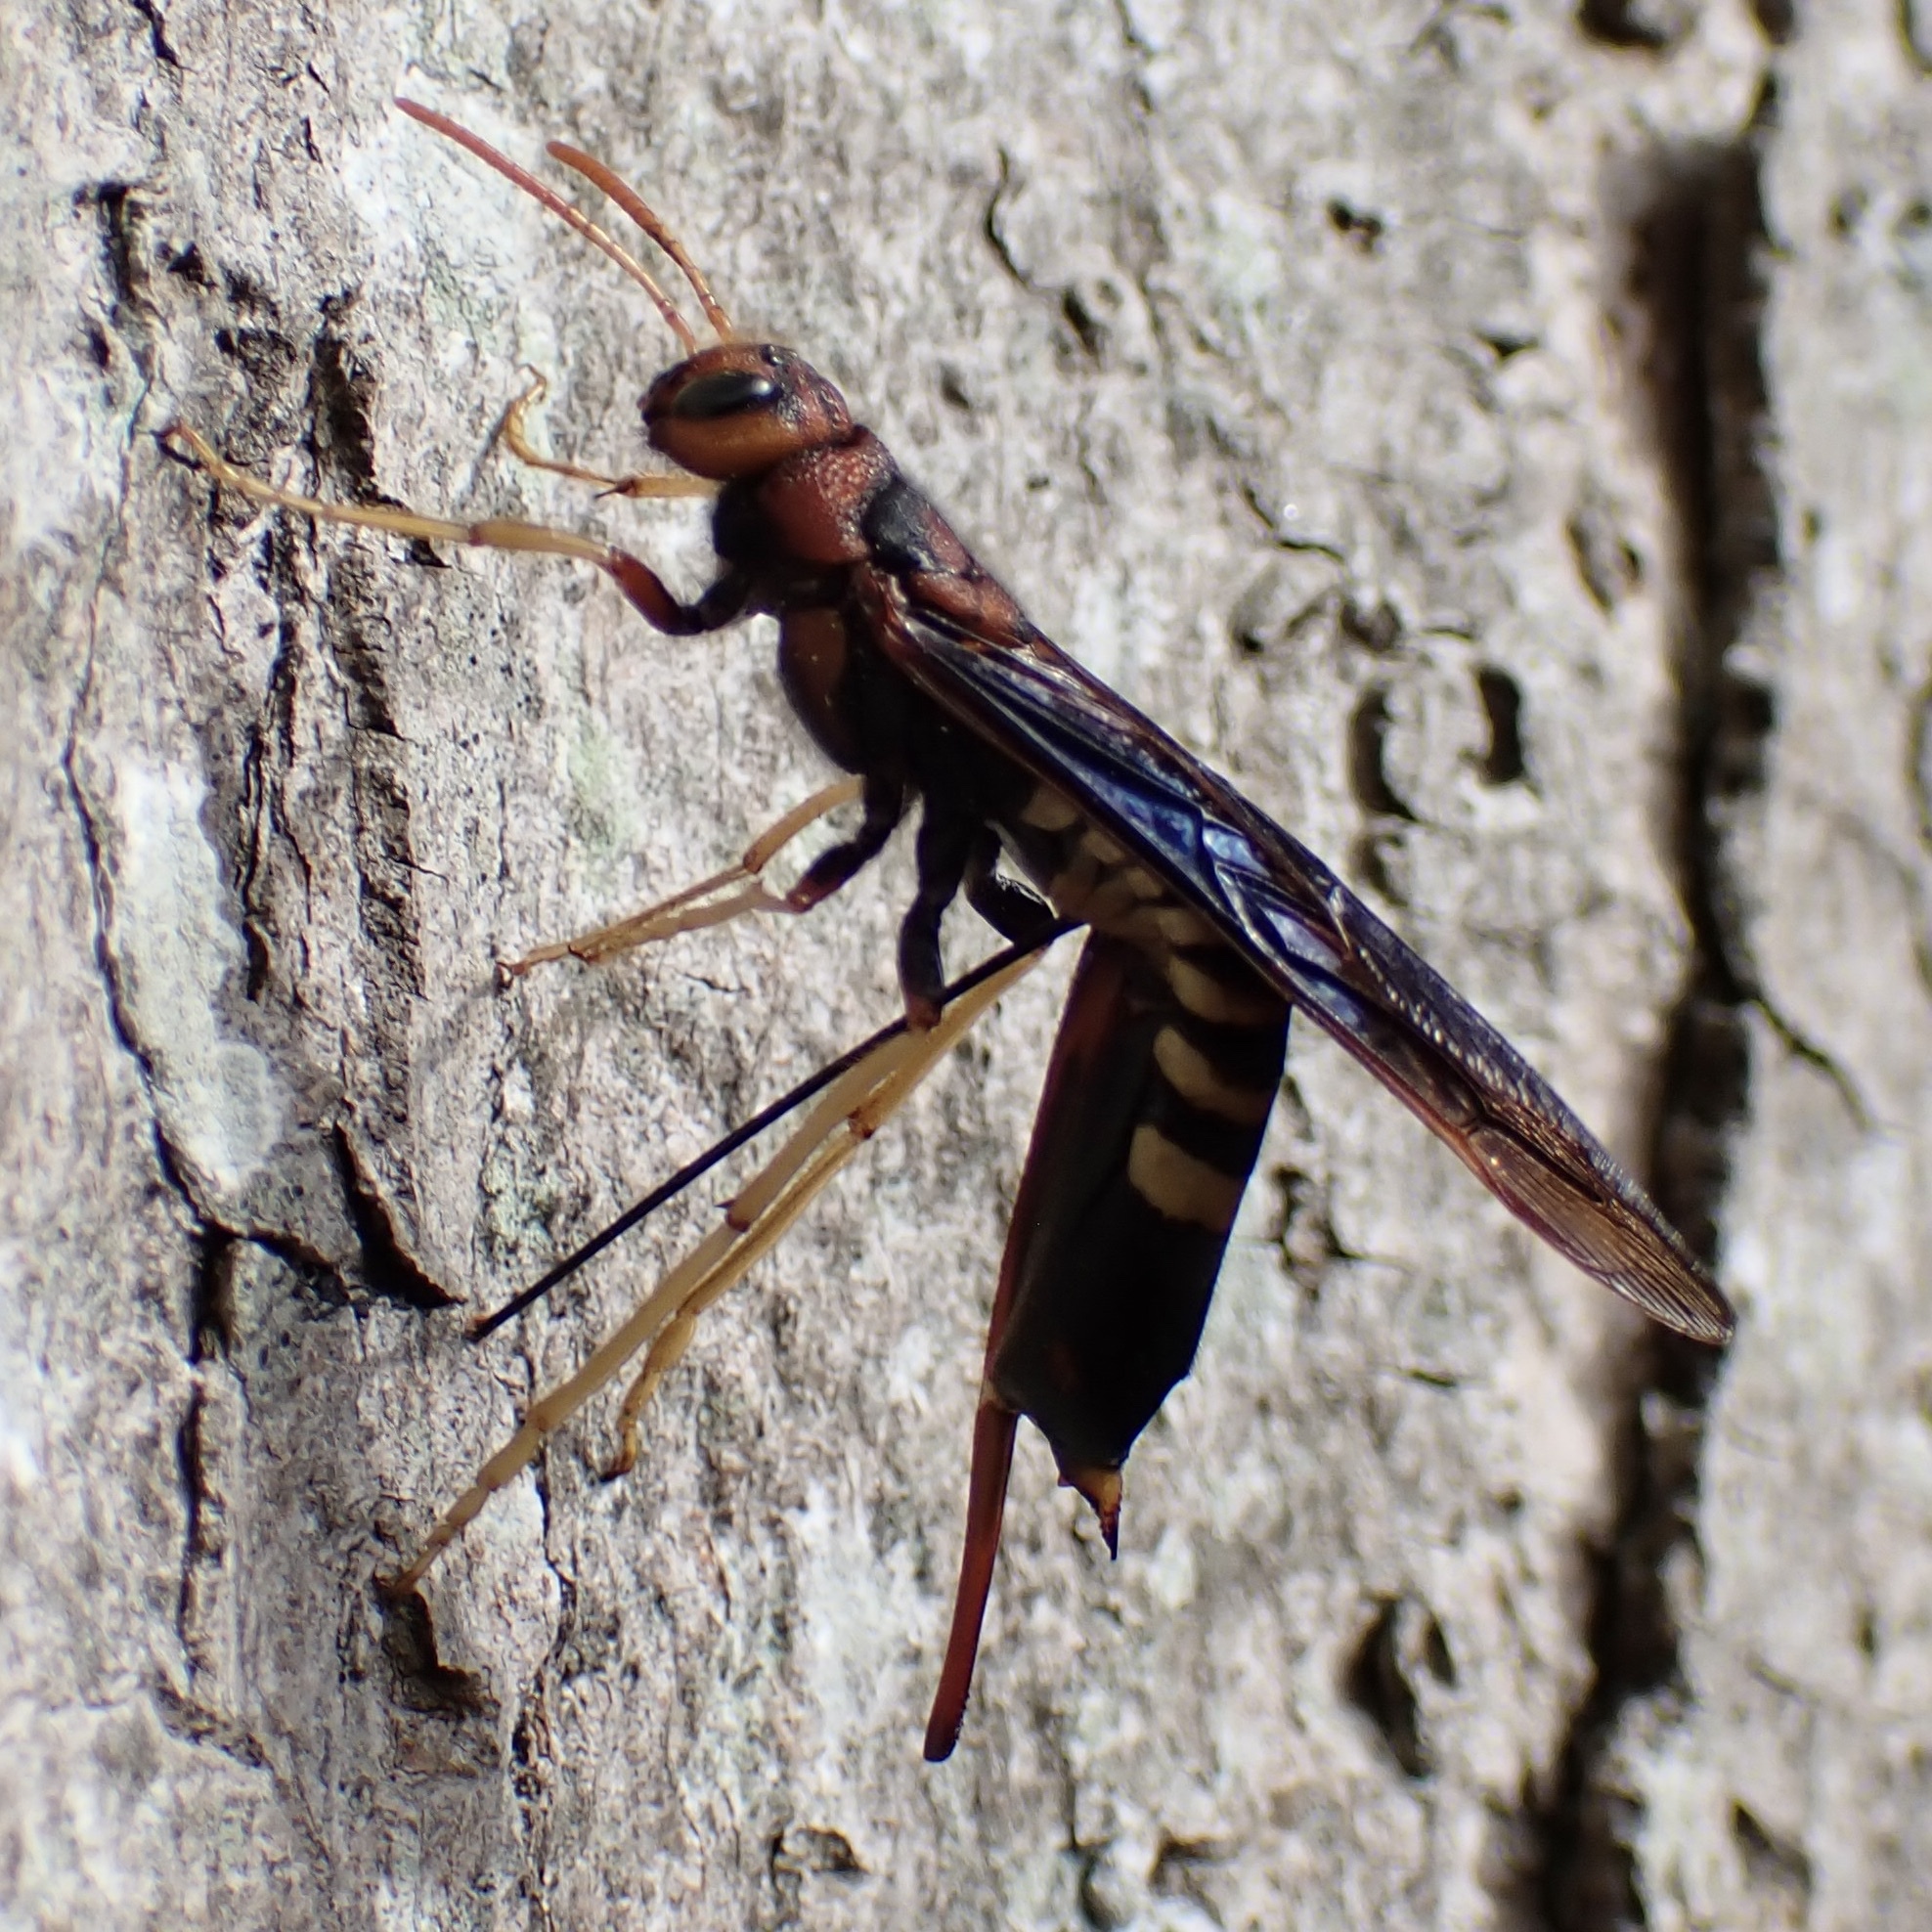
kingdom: Animalia
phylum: Arthropoda
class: Insecta
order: Hymenoptera
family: Siricidae
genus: Tremex
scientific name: Tremex columba
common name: Wasp
